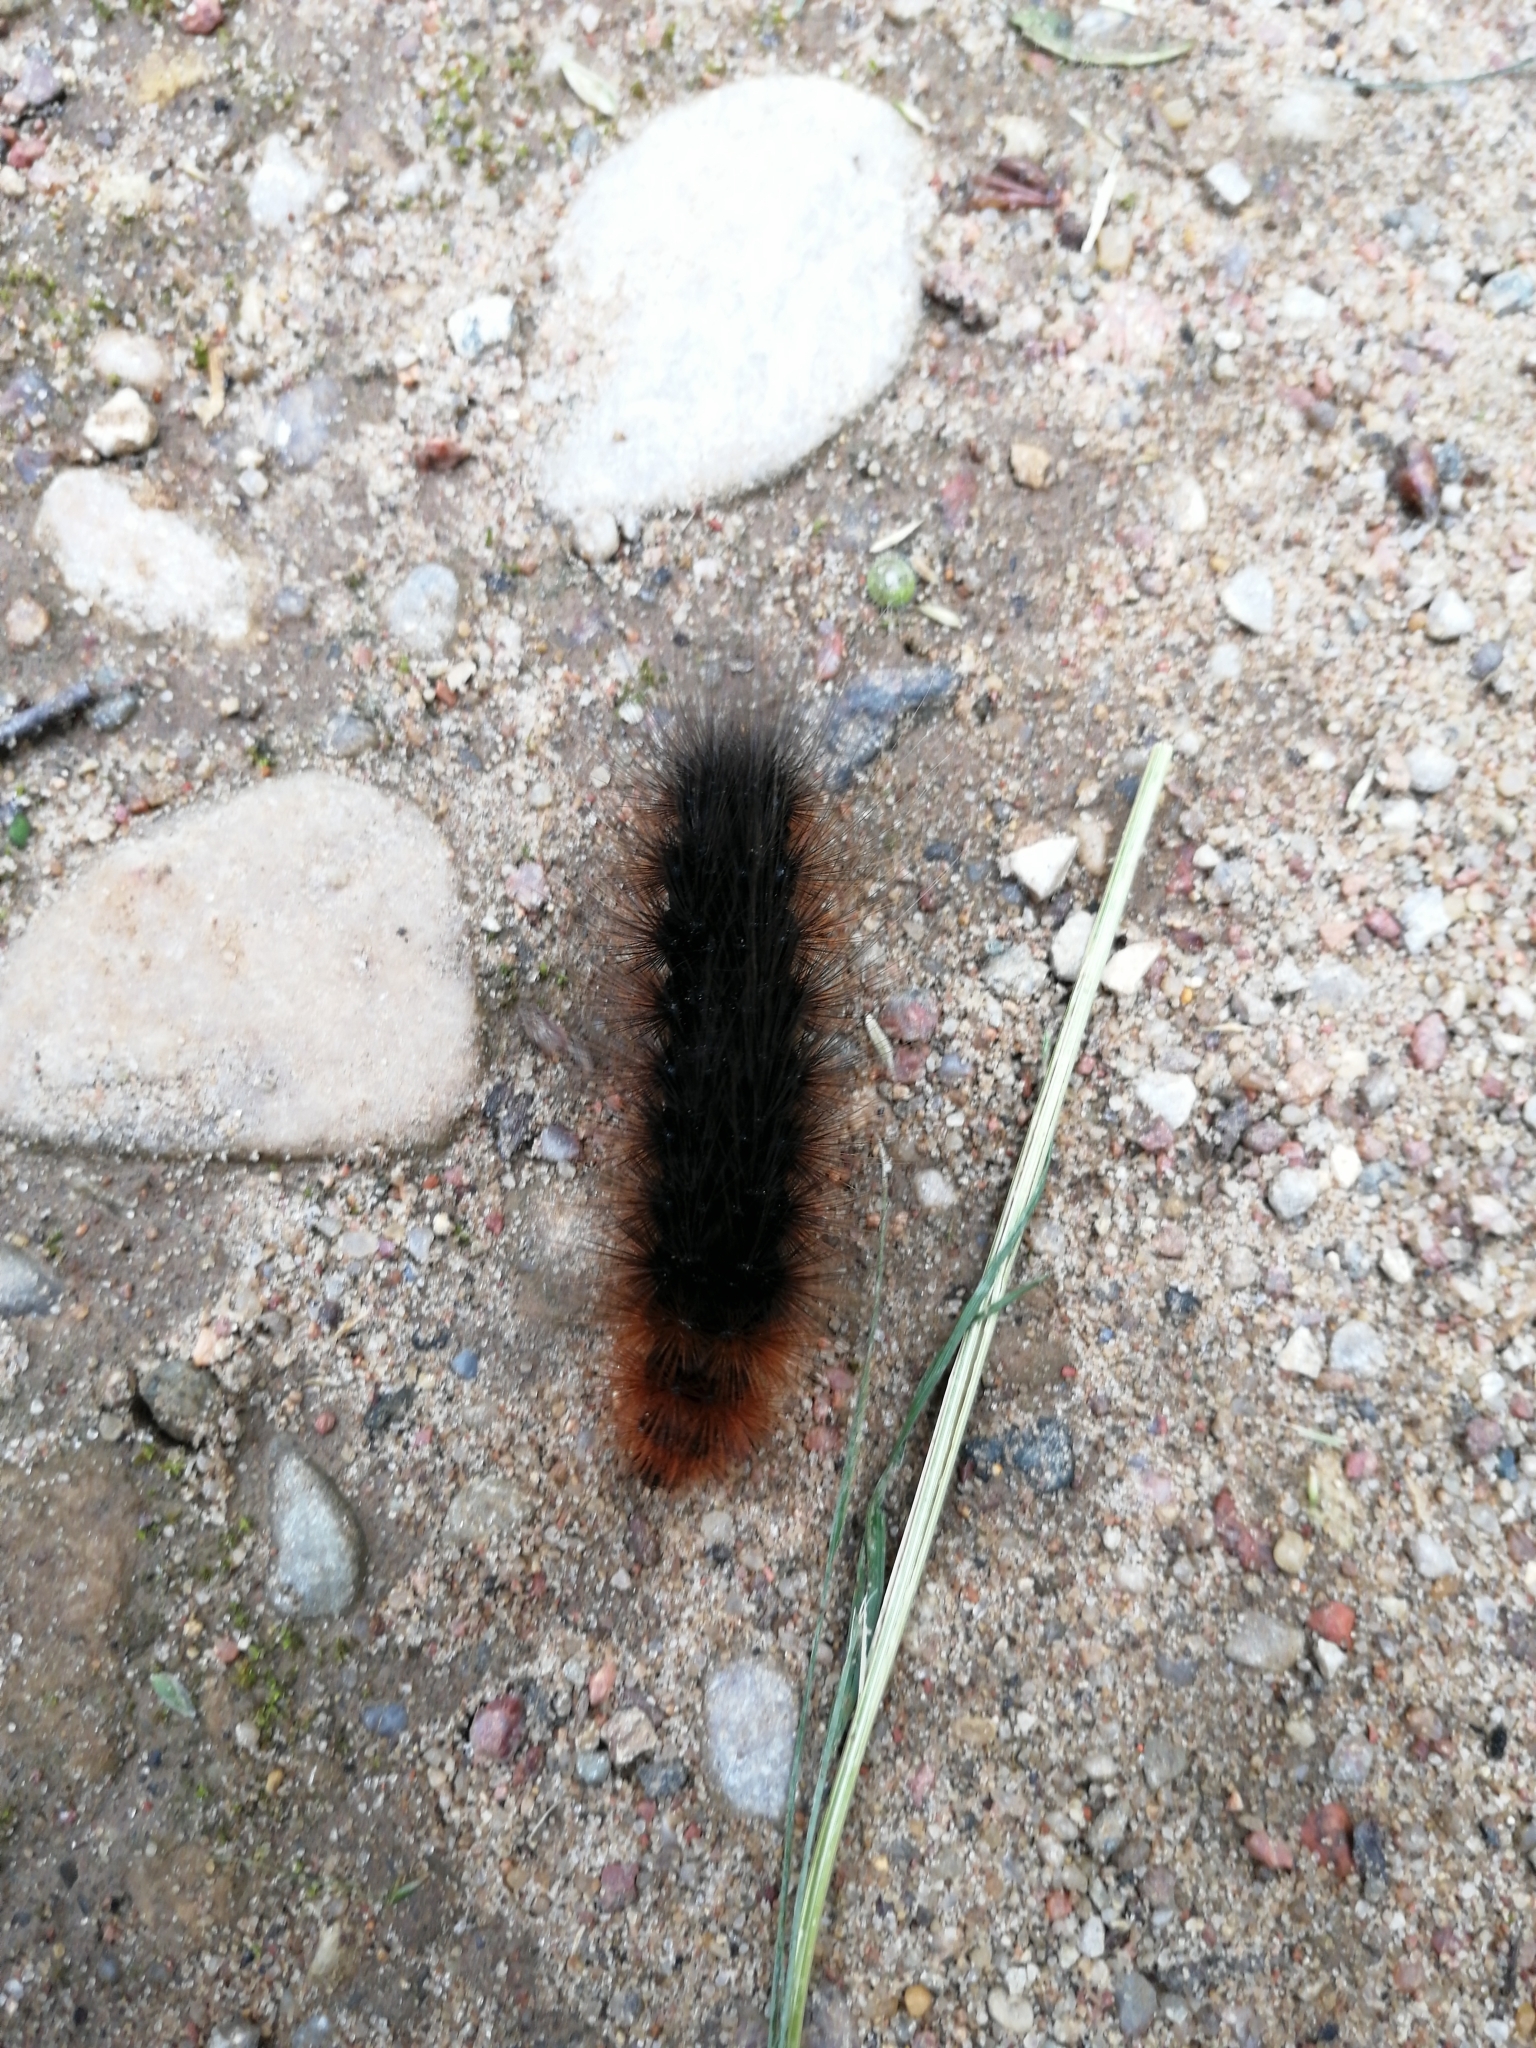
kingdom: Animalia
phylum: Arthropoda
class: Insecta
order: Lepidoptera
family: Erebidae
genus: Arctia
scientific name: Arctia caja
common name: Garden tiger
